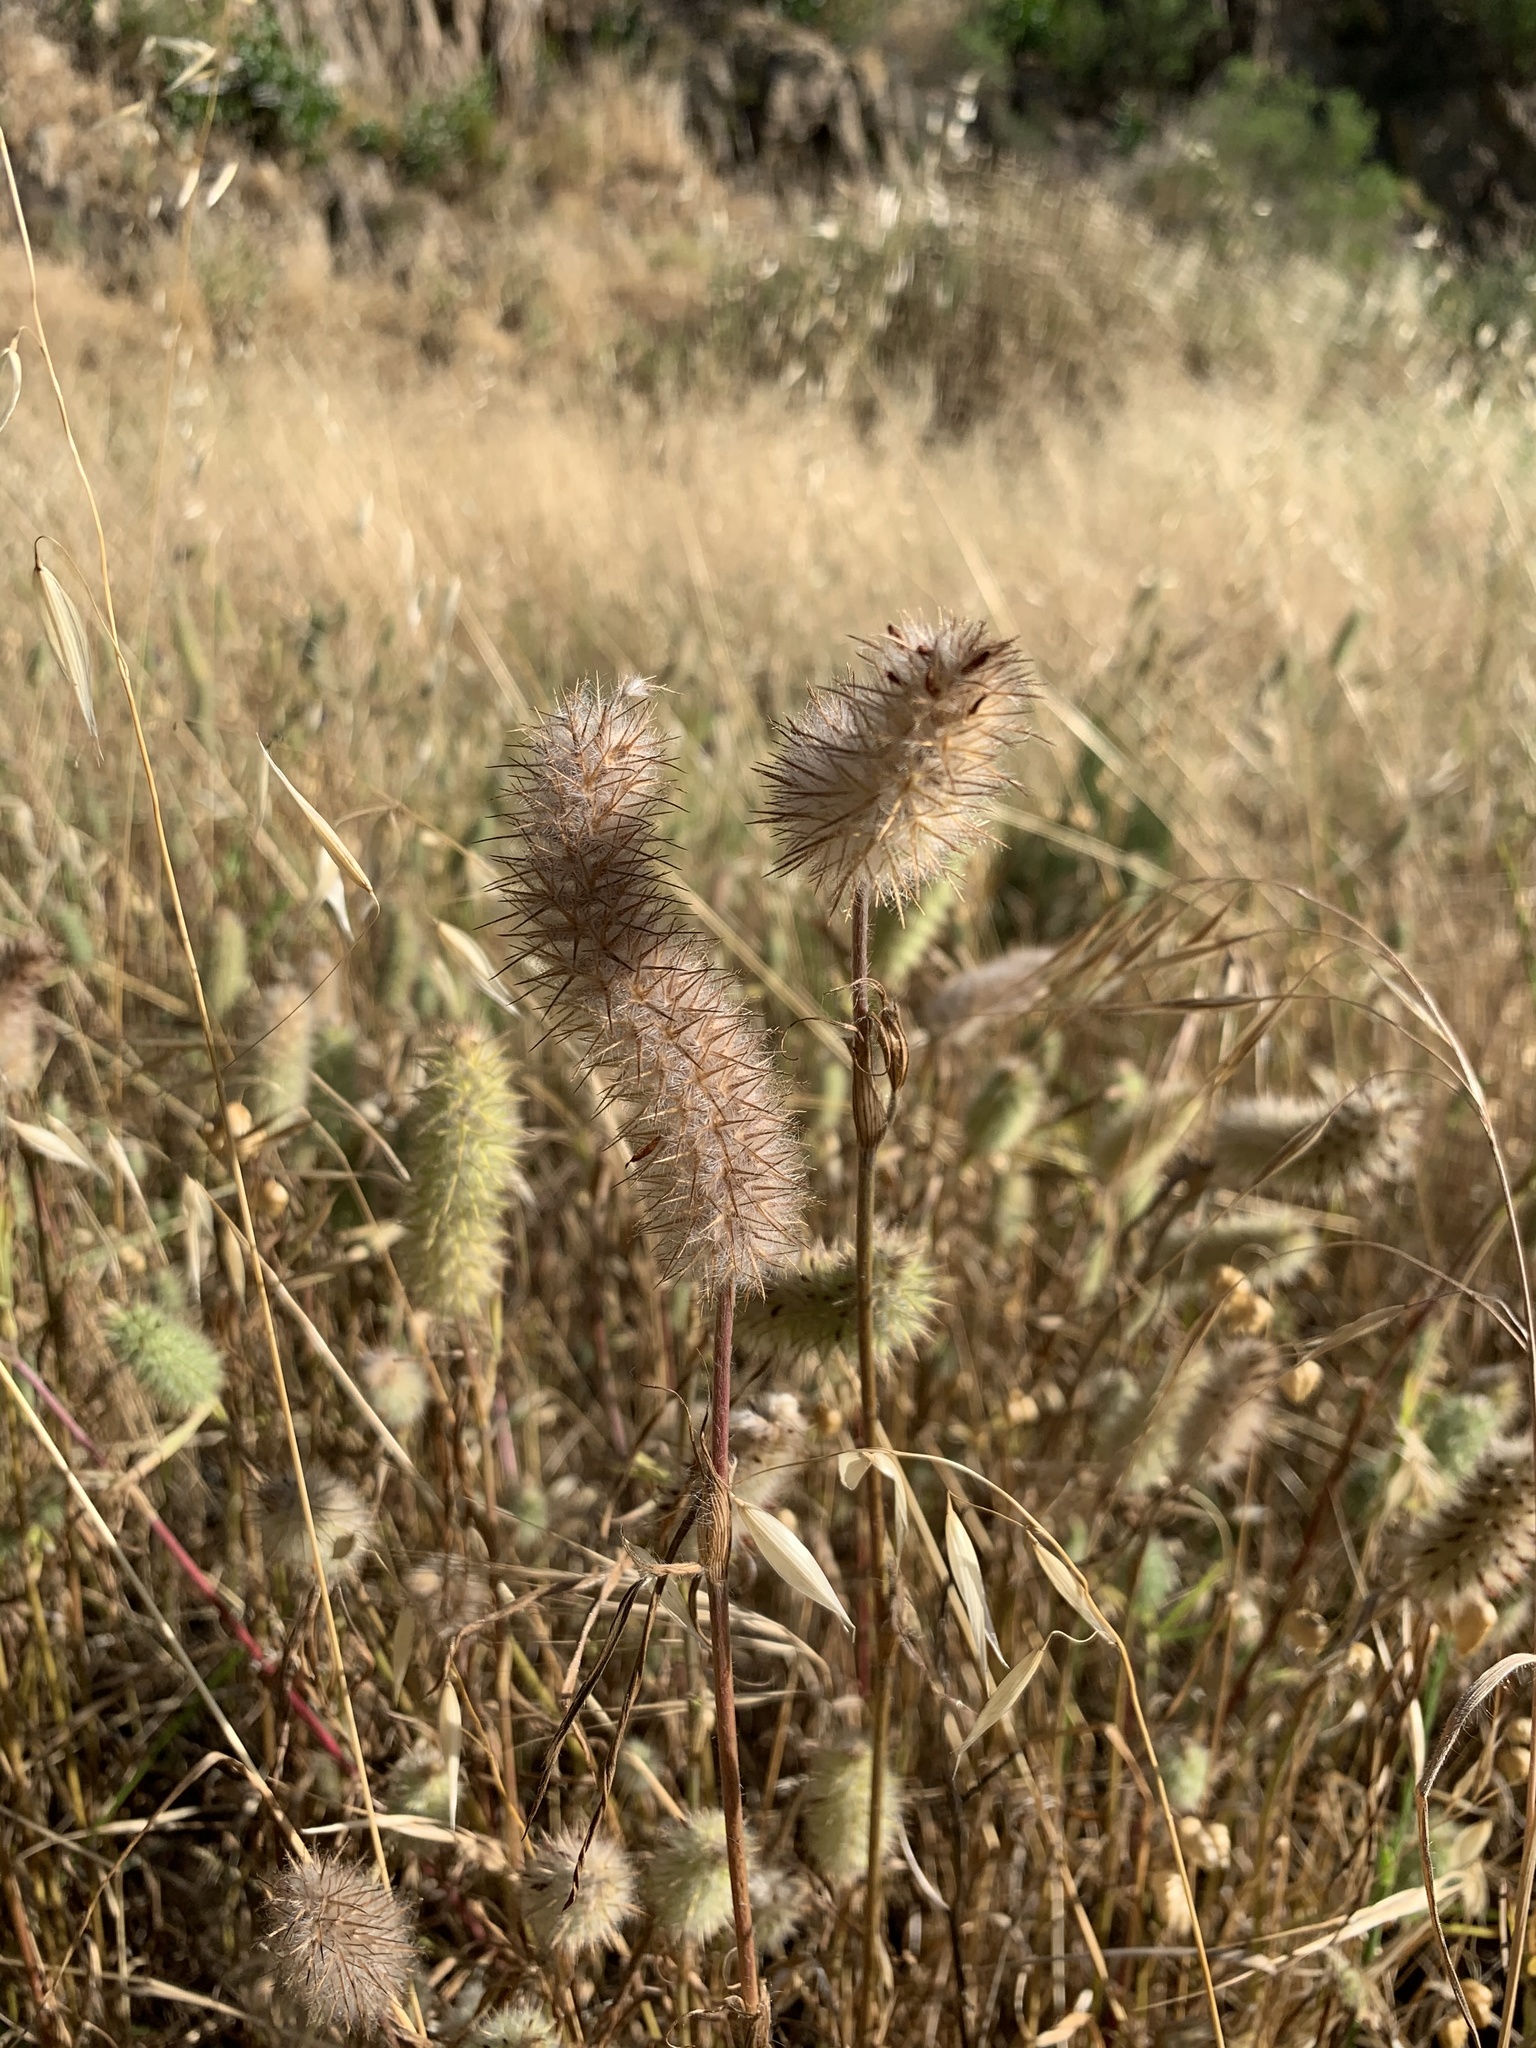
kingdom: Plantae
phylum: Tracheophyta
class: Magnoliopsida
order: Fabales
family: Fabaceae
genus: Trifolium
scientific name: Trifolium angustifolium
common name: Narrow clover
